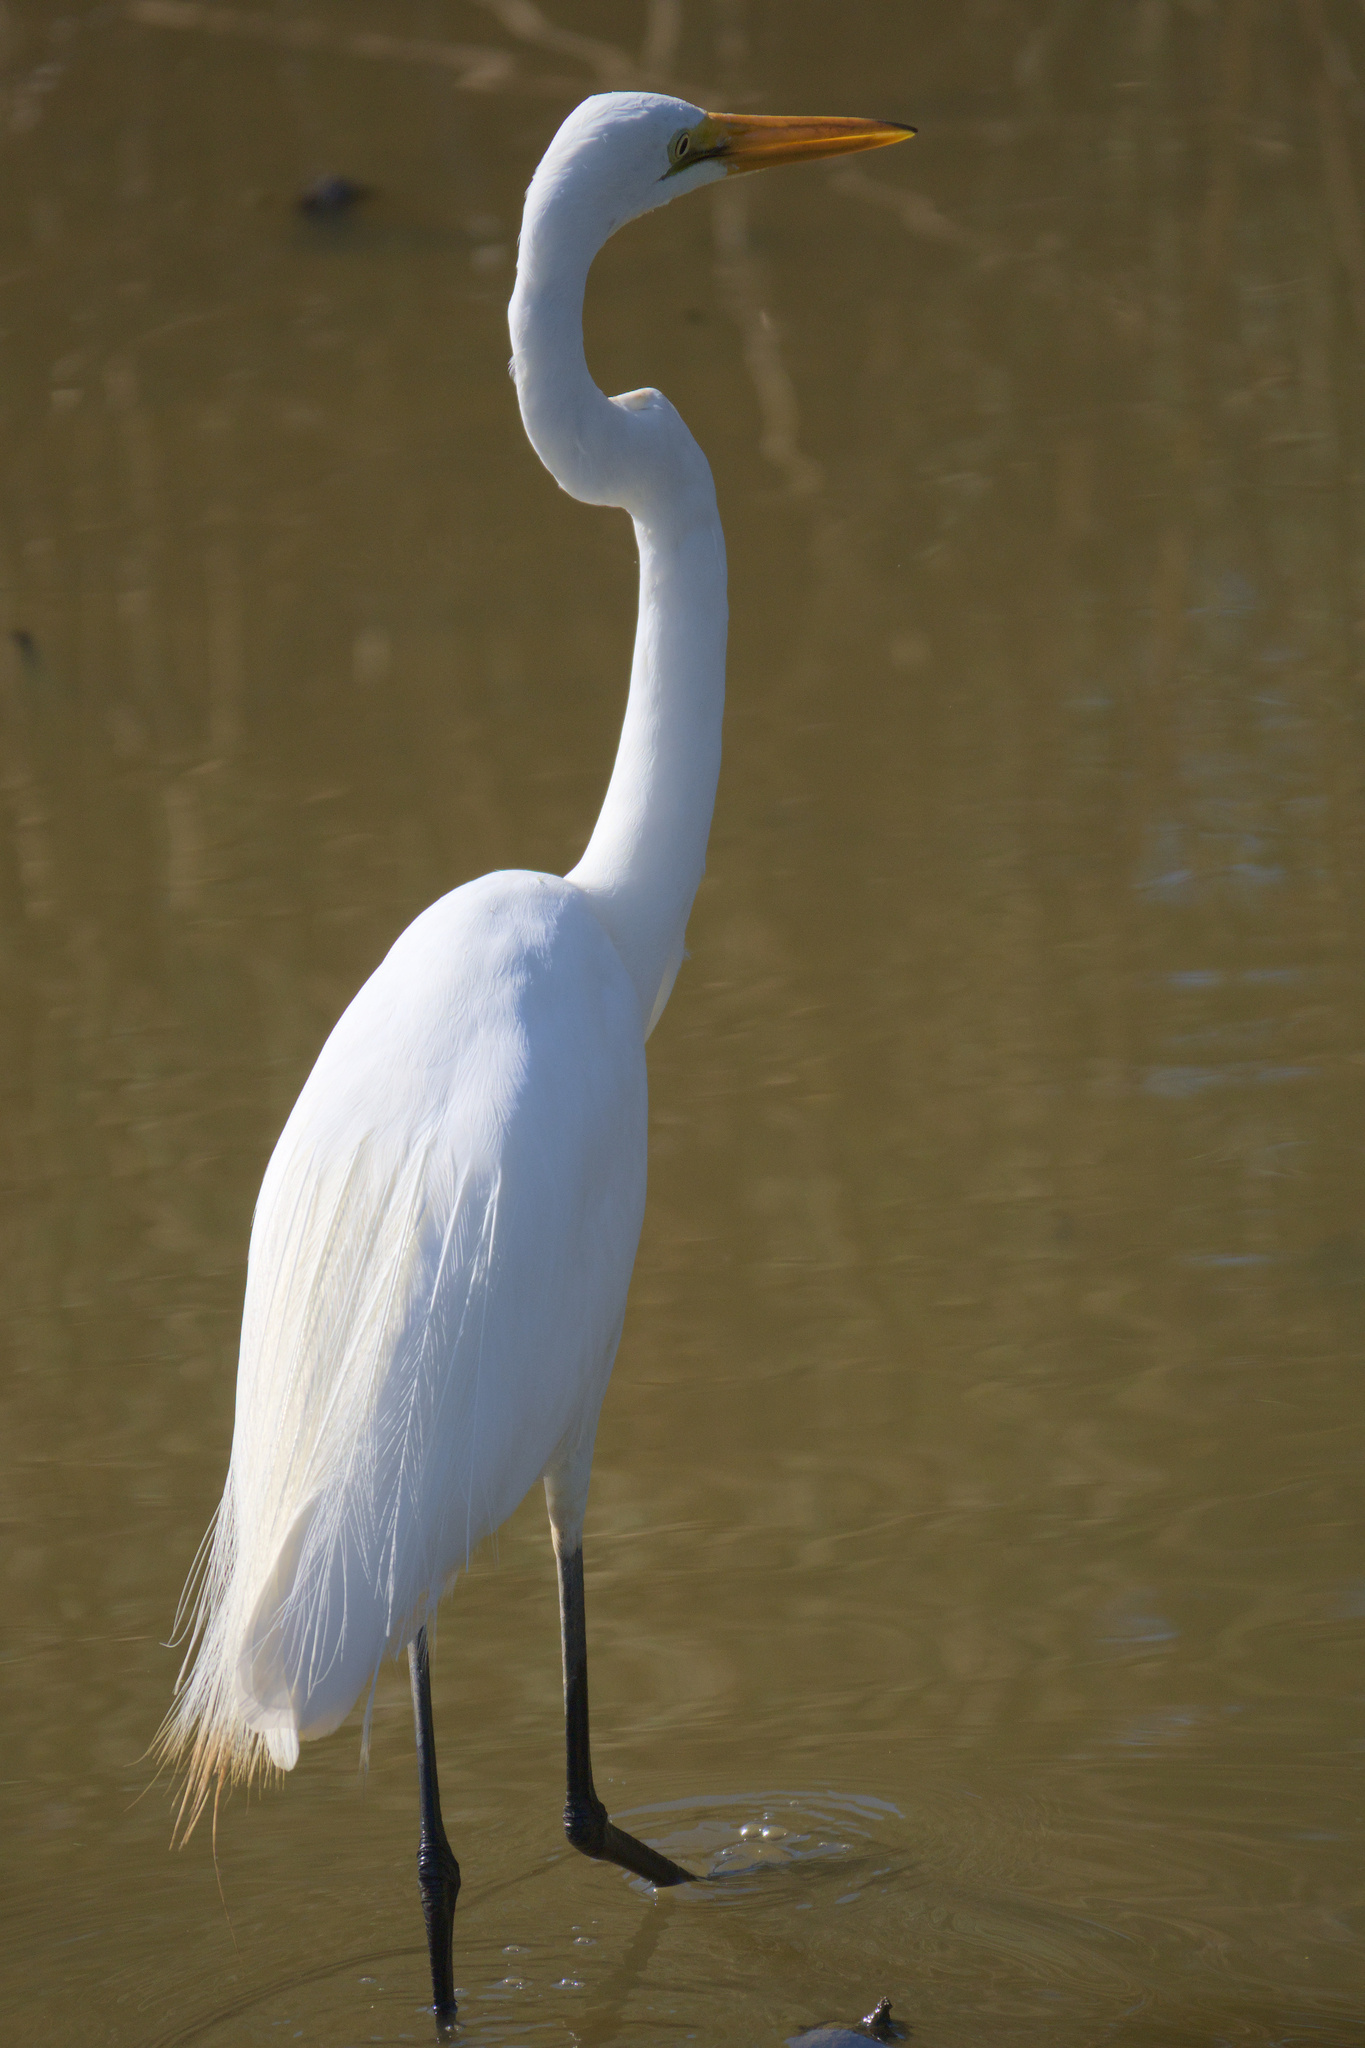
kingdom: Animalia
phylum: Chordata
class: Aves
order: Pelecaniformes
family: Ardeidae
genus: Ardea
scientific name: Ardea modesta
